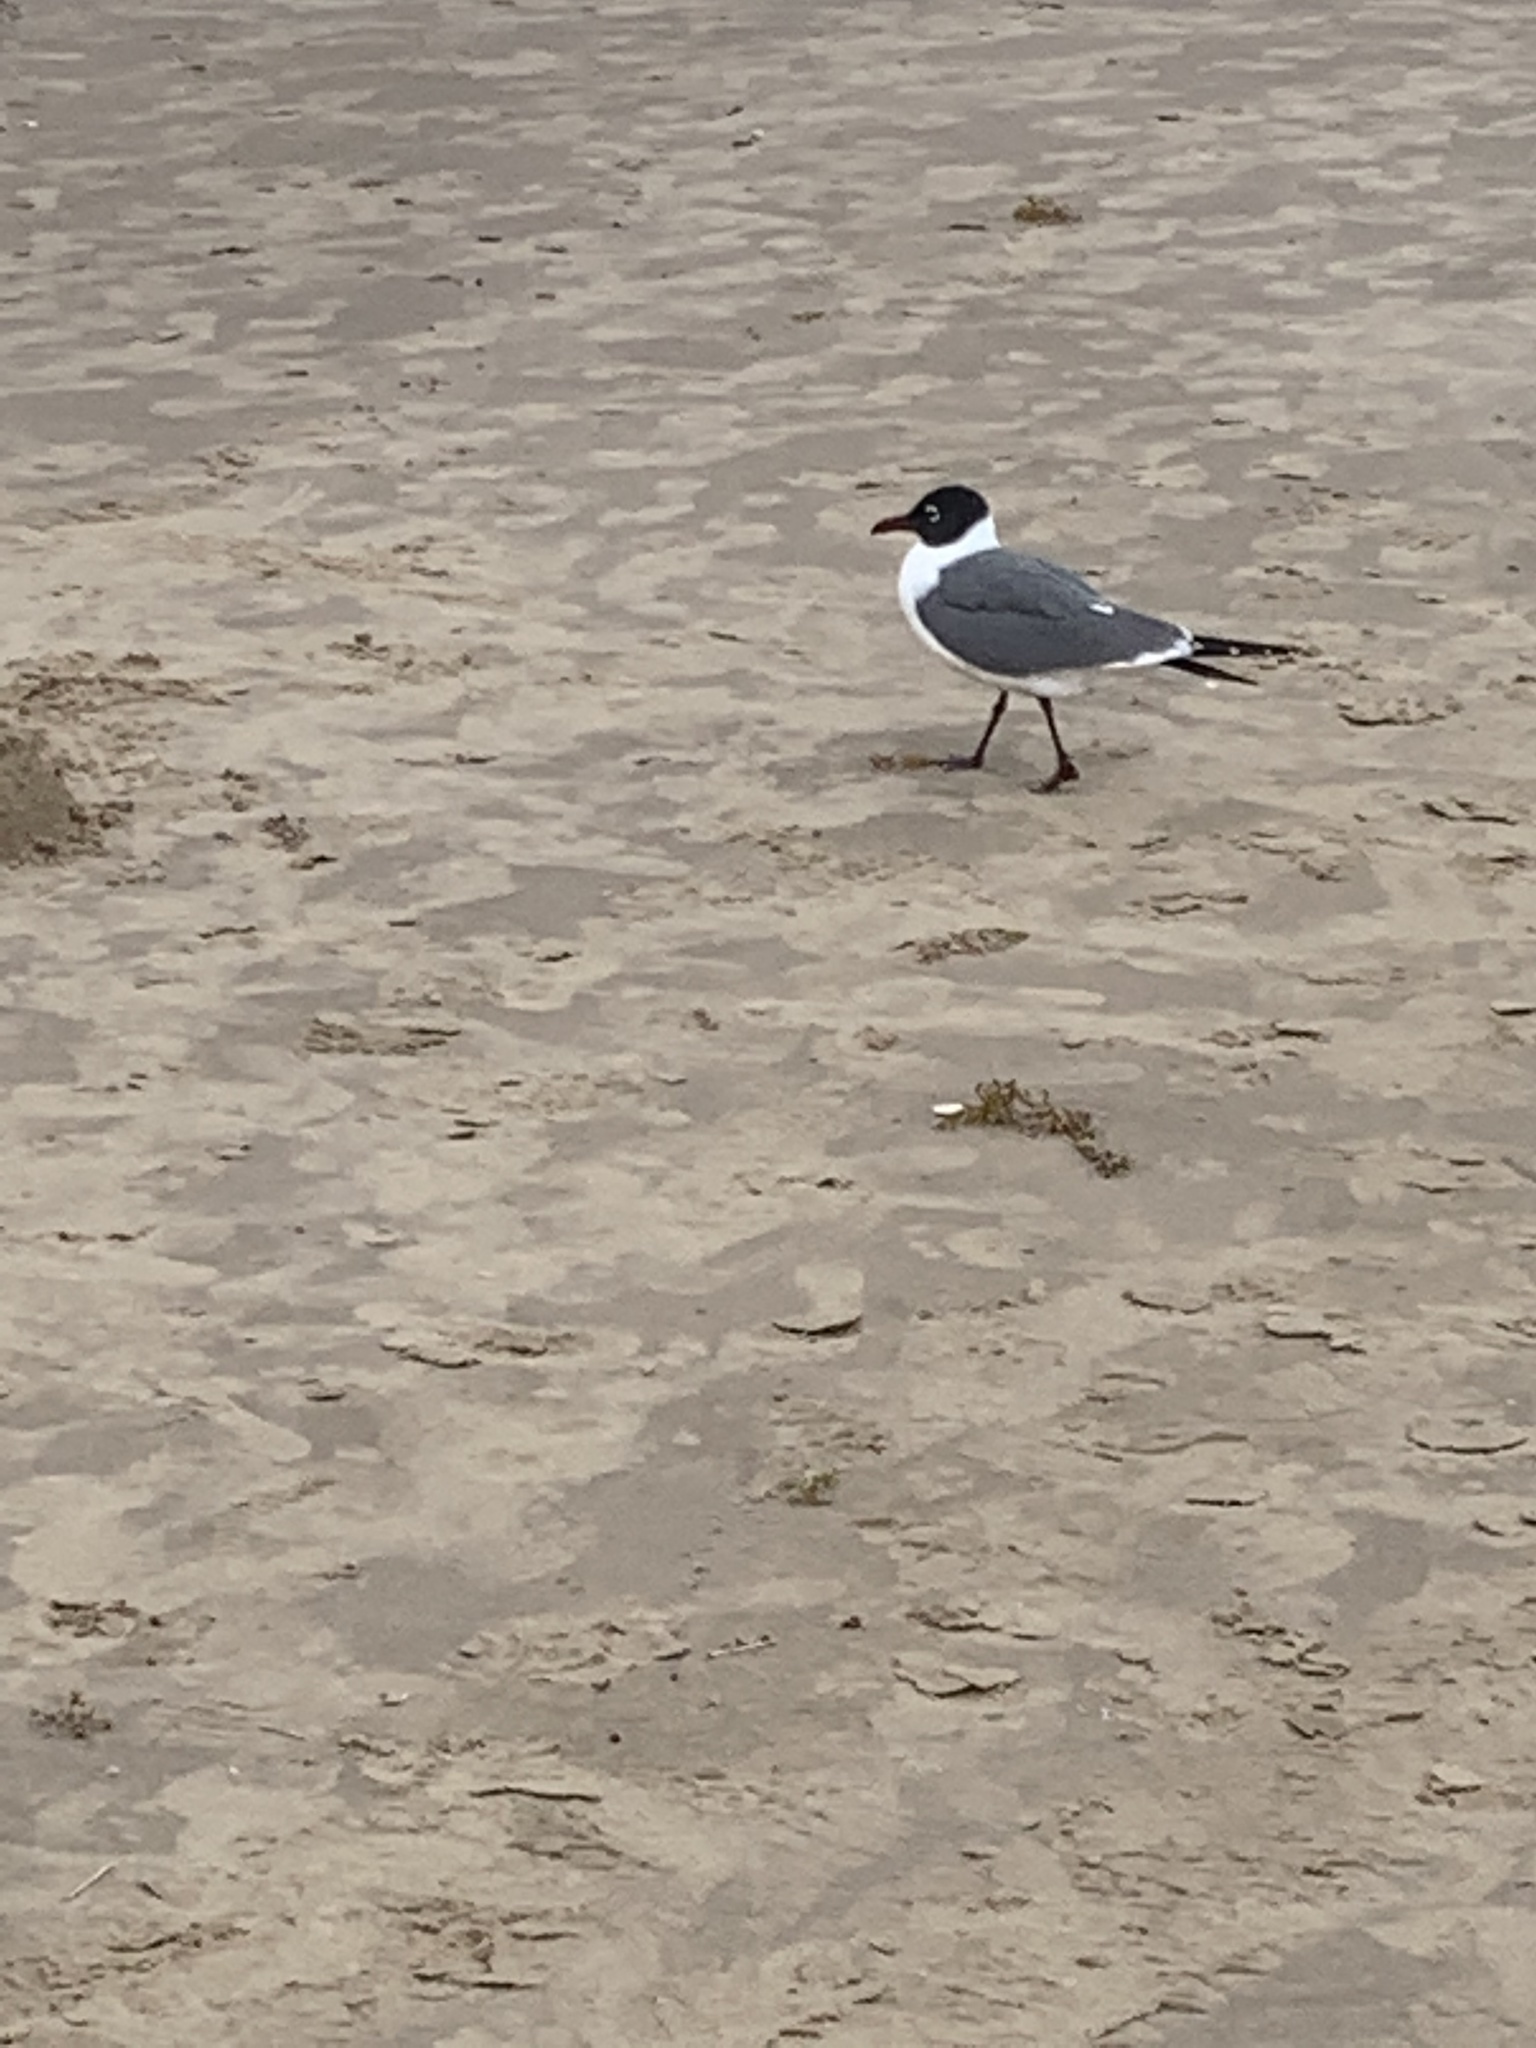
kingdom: Animalia
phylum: Chordata
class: Aves
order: Charadriiformes
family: Laridae
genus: Leucophaeus
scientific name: Leucophaeus atricilla
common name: Laughing gull
